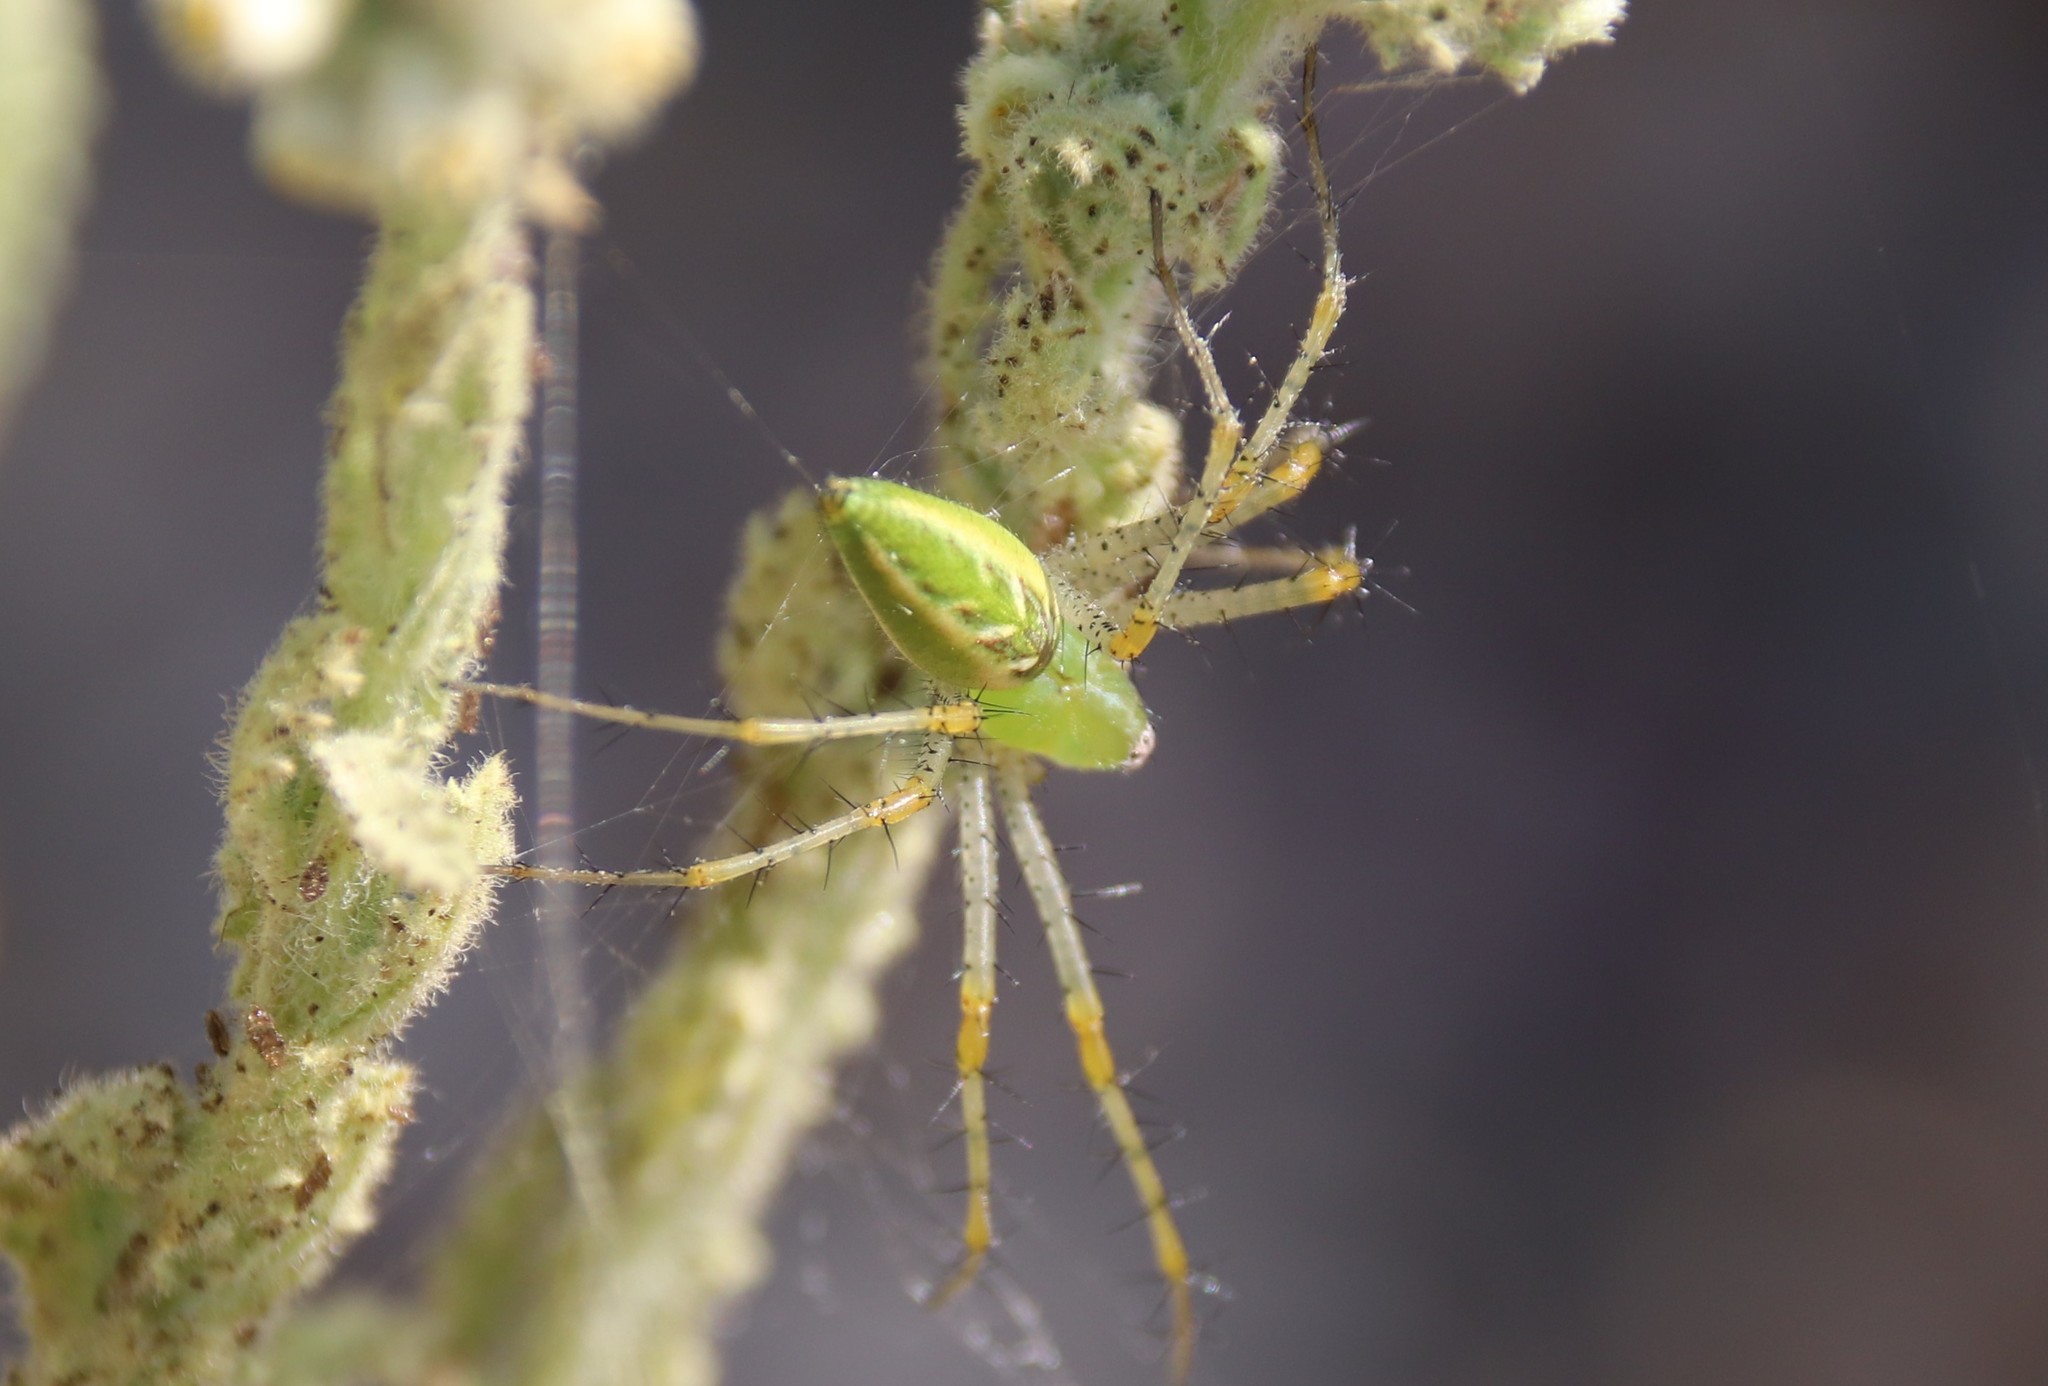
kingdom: Animalia
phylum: Arthropoda
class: Arachnida
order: Araneae
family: Oxyopidae
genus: Peucetia
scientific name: Peucetia viridans
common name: Lynx spiders
